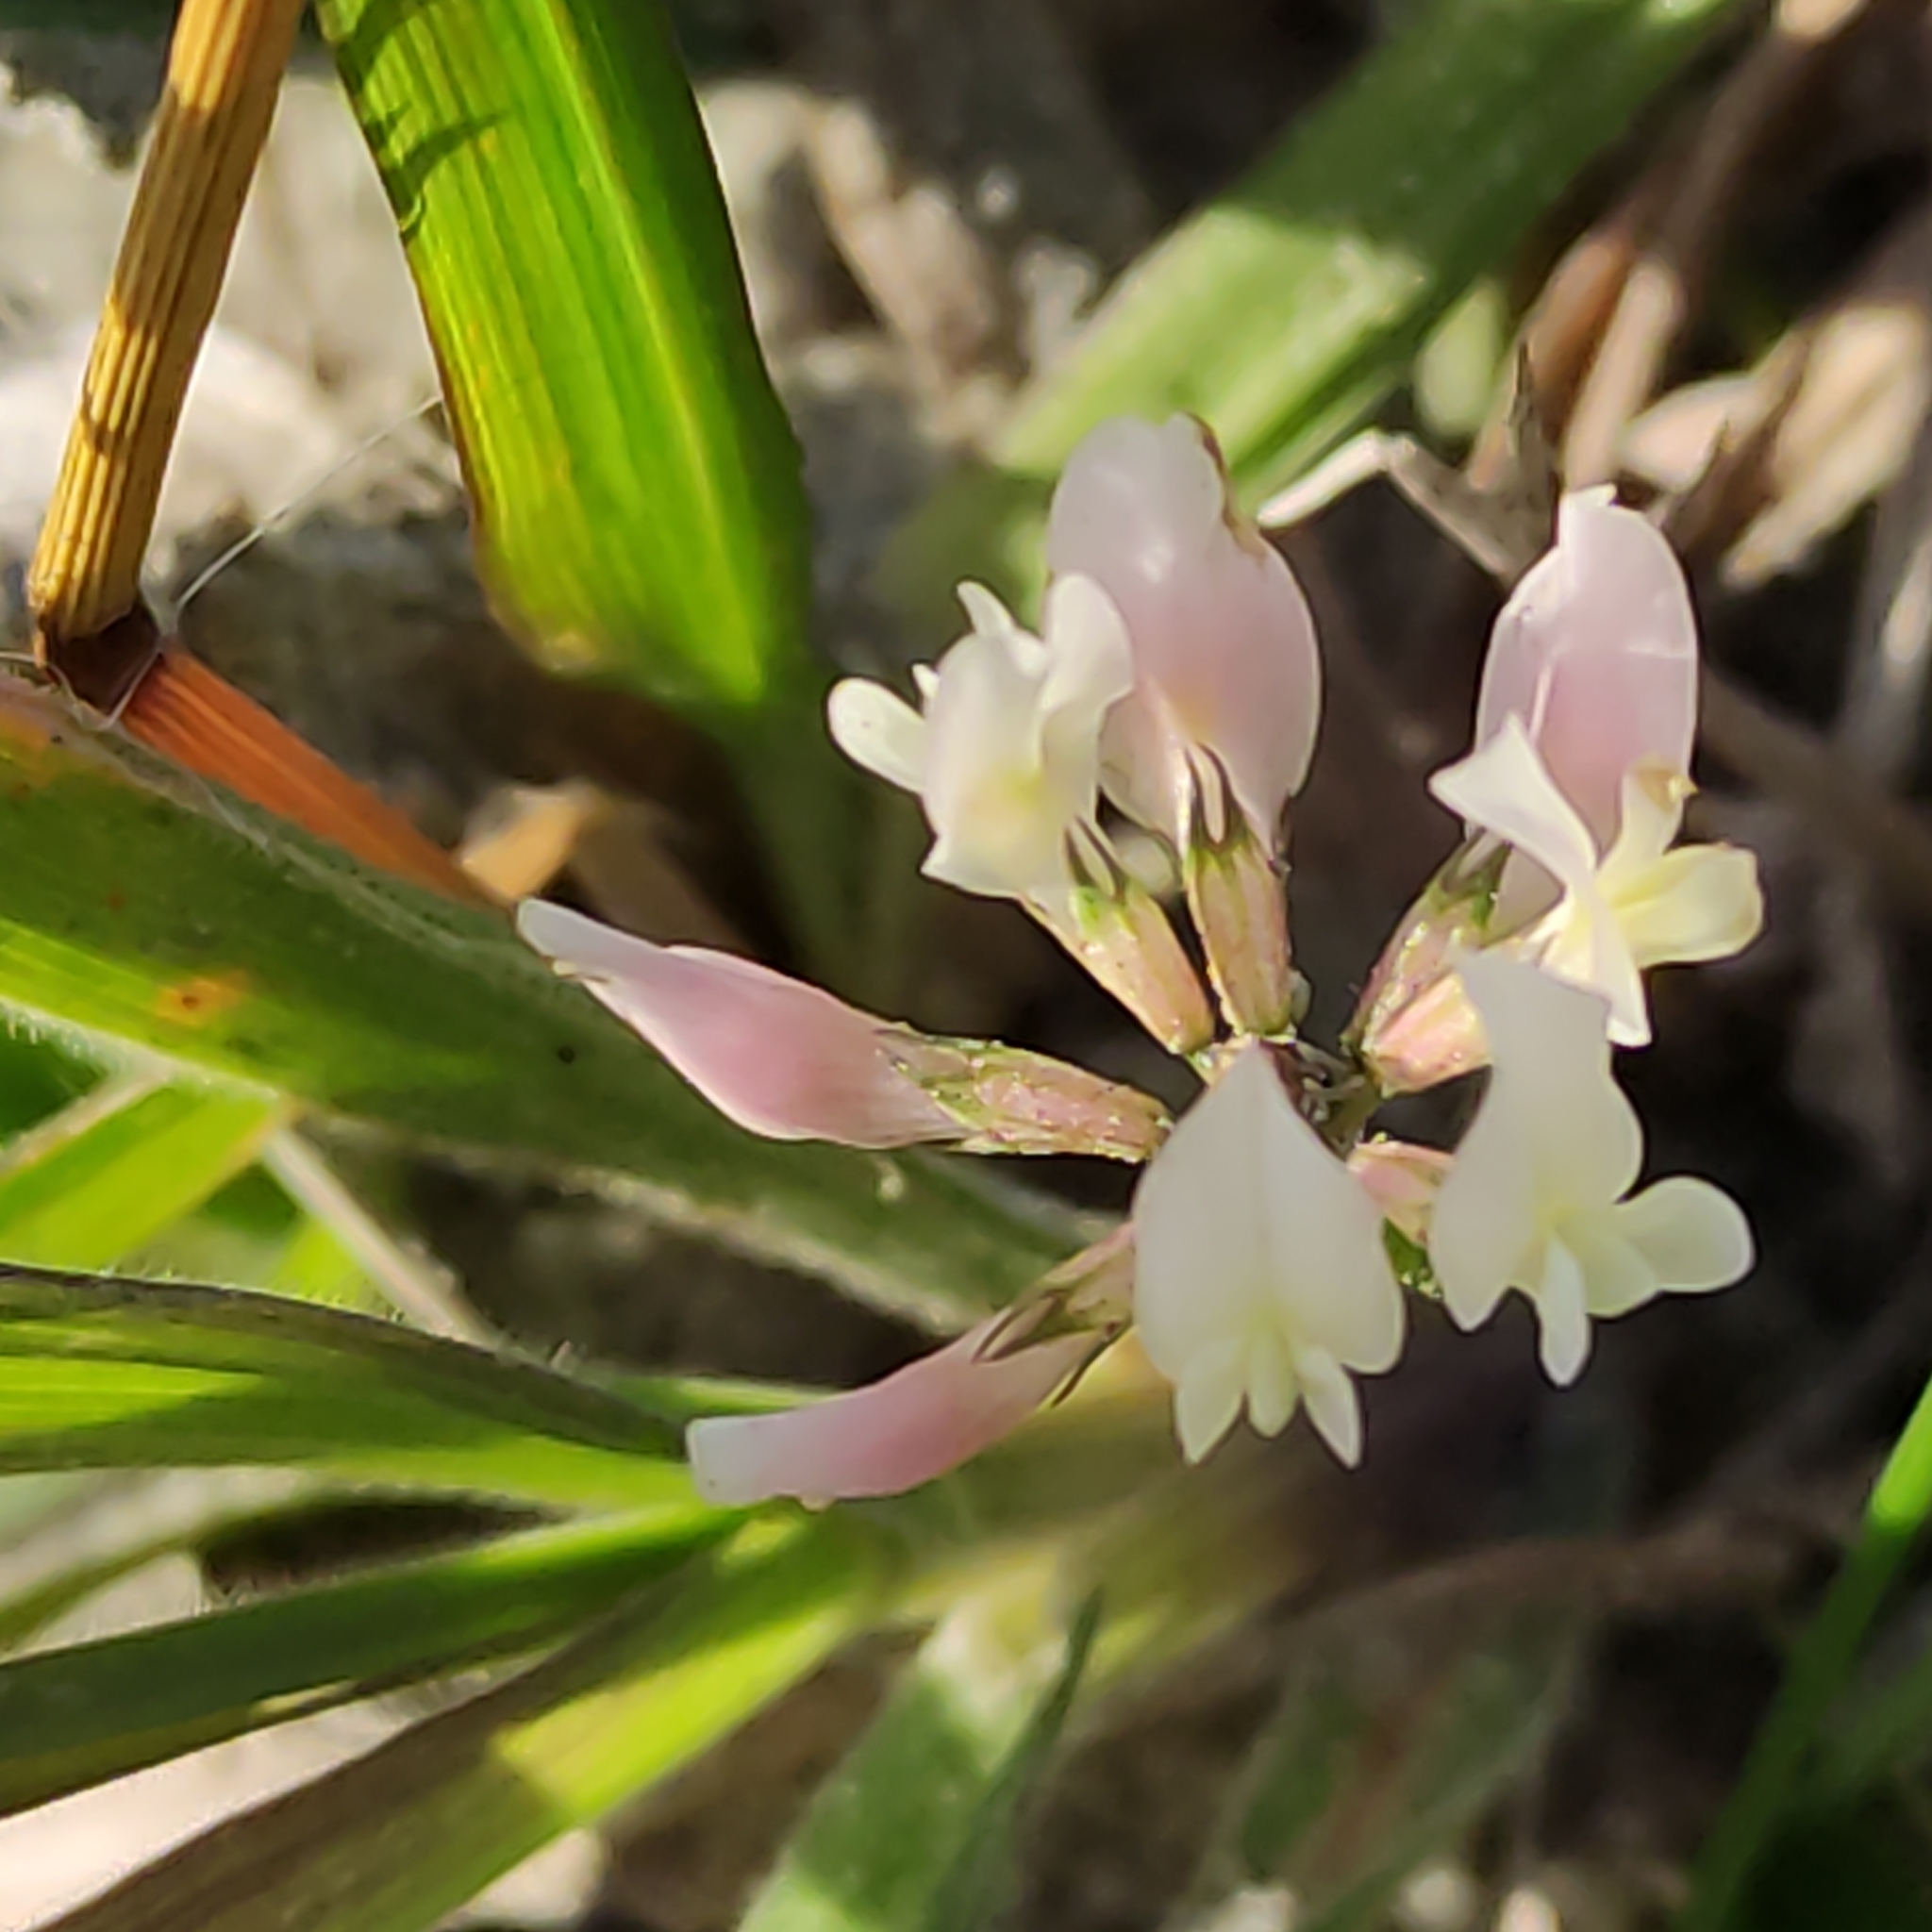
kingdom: Plantae
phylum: Tracheophyta
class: Magnoliopsida
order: Fabales
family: Fabaceae
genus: Trifolium
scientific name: Trifolium repens
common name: White clover
